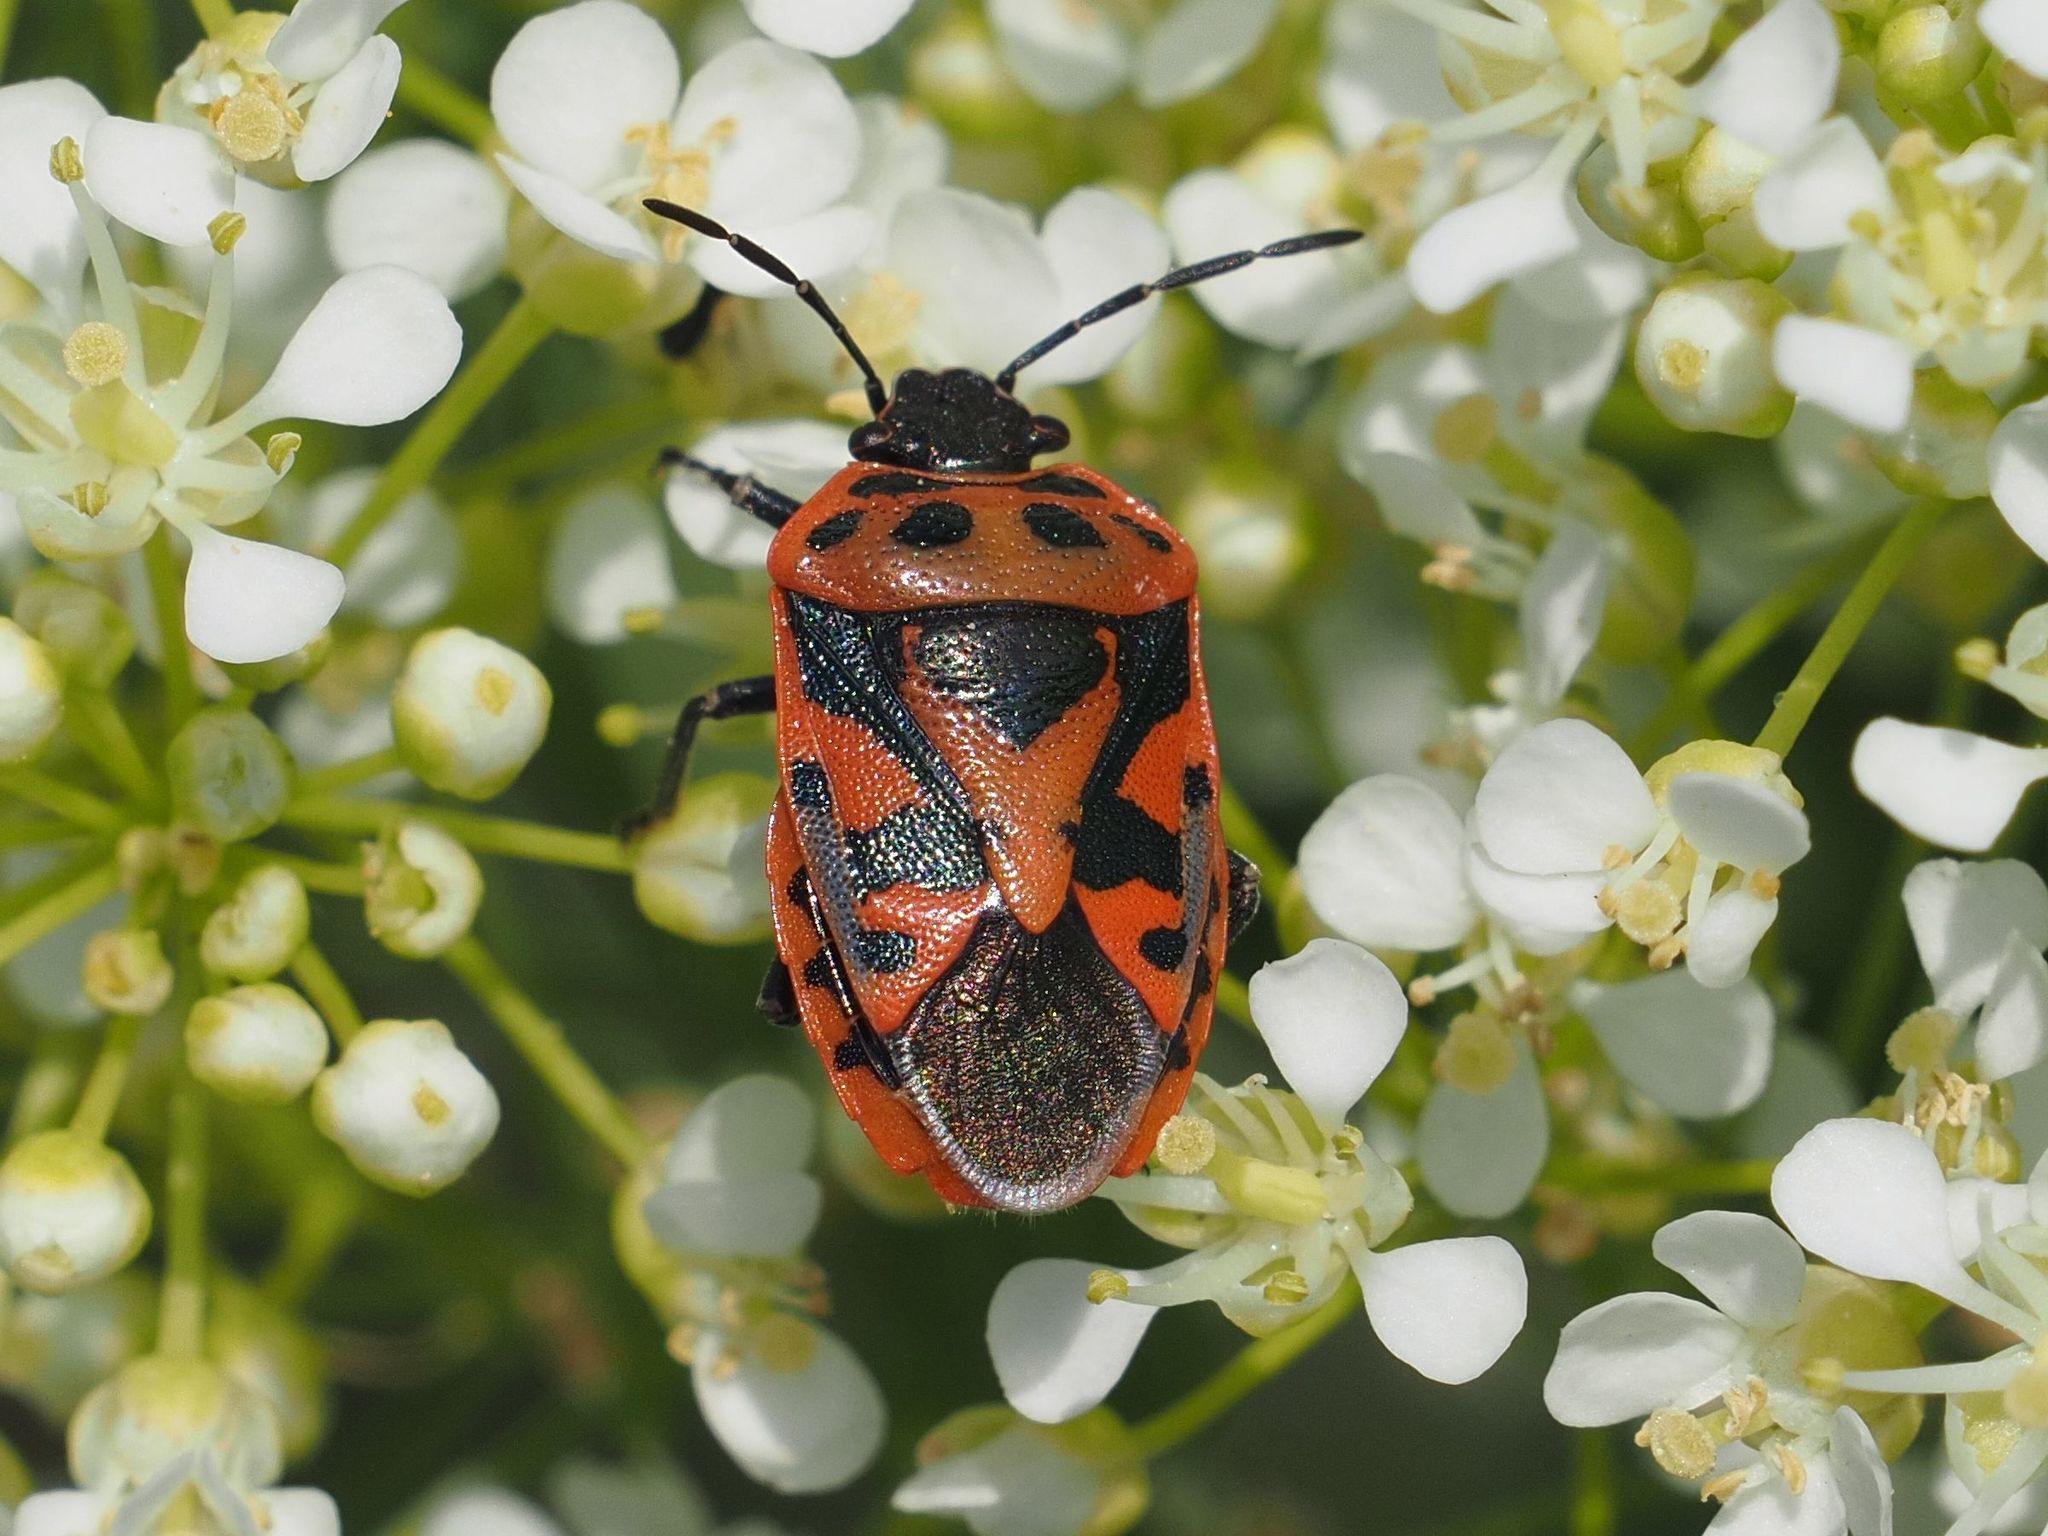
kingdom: Animalia
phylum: Arthropoda
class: Insecta
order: Hemiptera
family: Pentatomidae
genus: Eurydema
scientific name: Eurydema ornata
